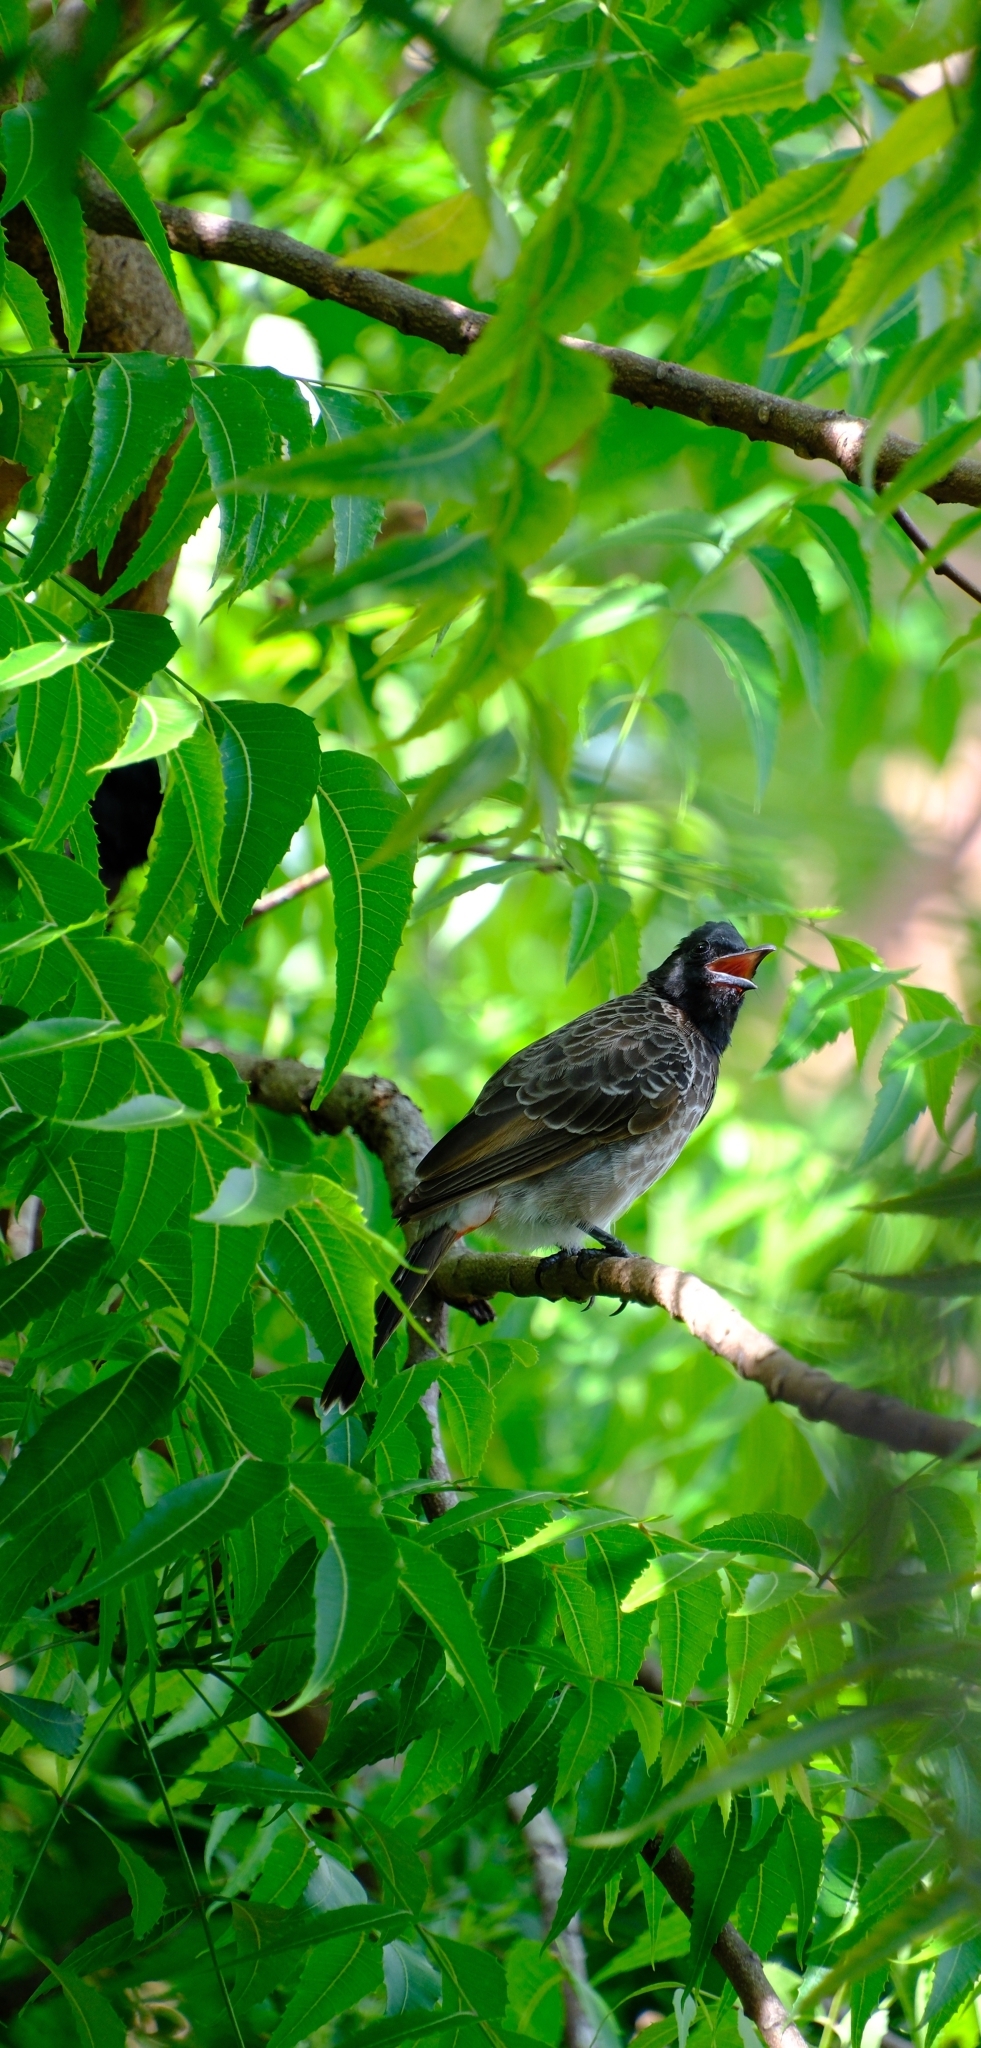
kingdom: Animalia
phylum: Chordata
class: Aves
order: Passeriformes
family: Pycnonotidae
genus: Pycnonotus
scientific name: Pycnonotus cafer
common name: Red-vented bulbul
